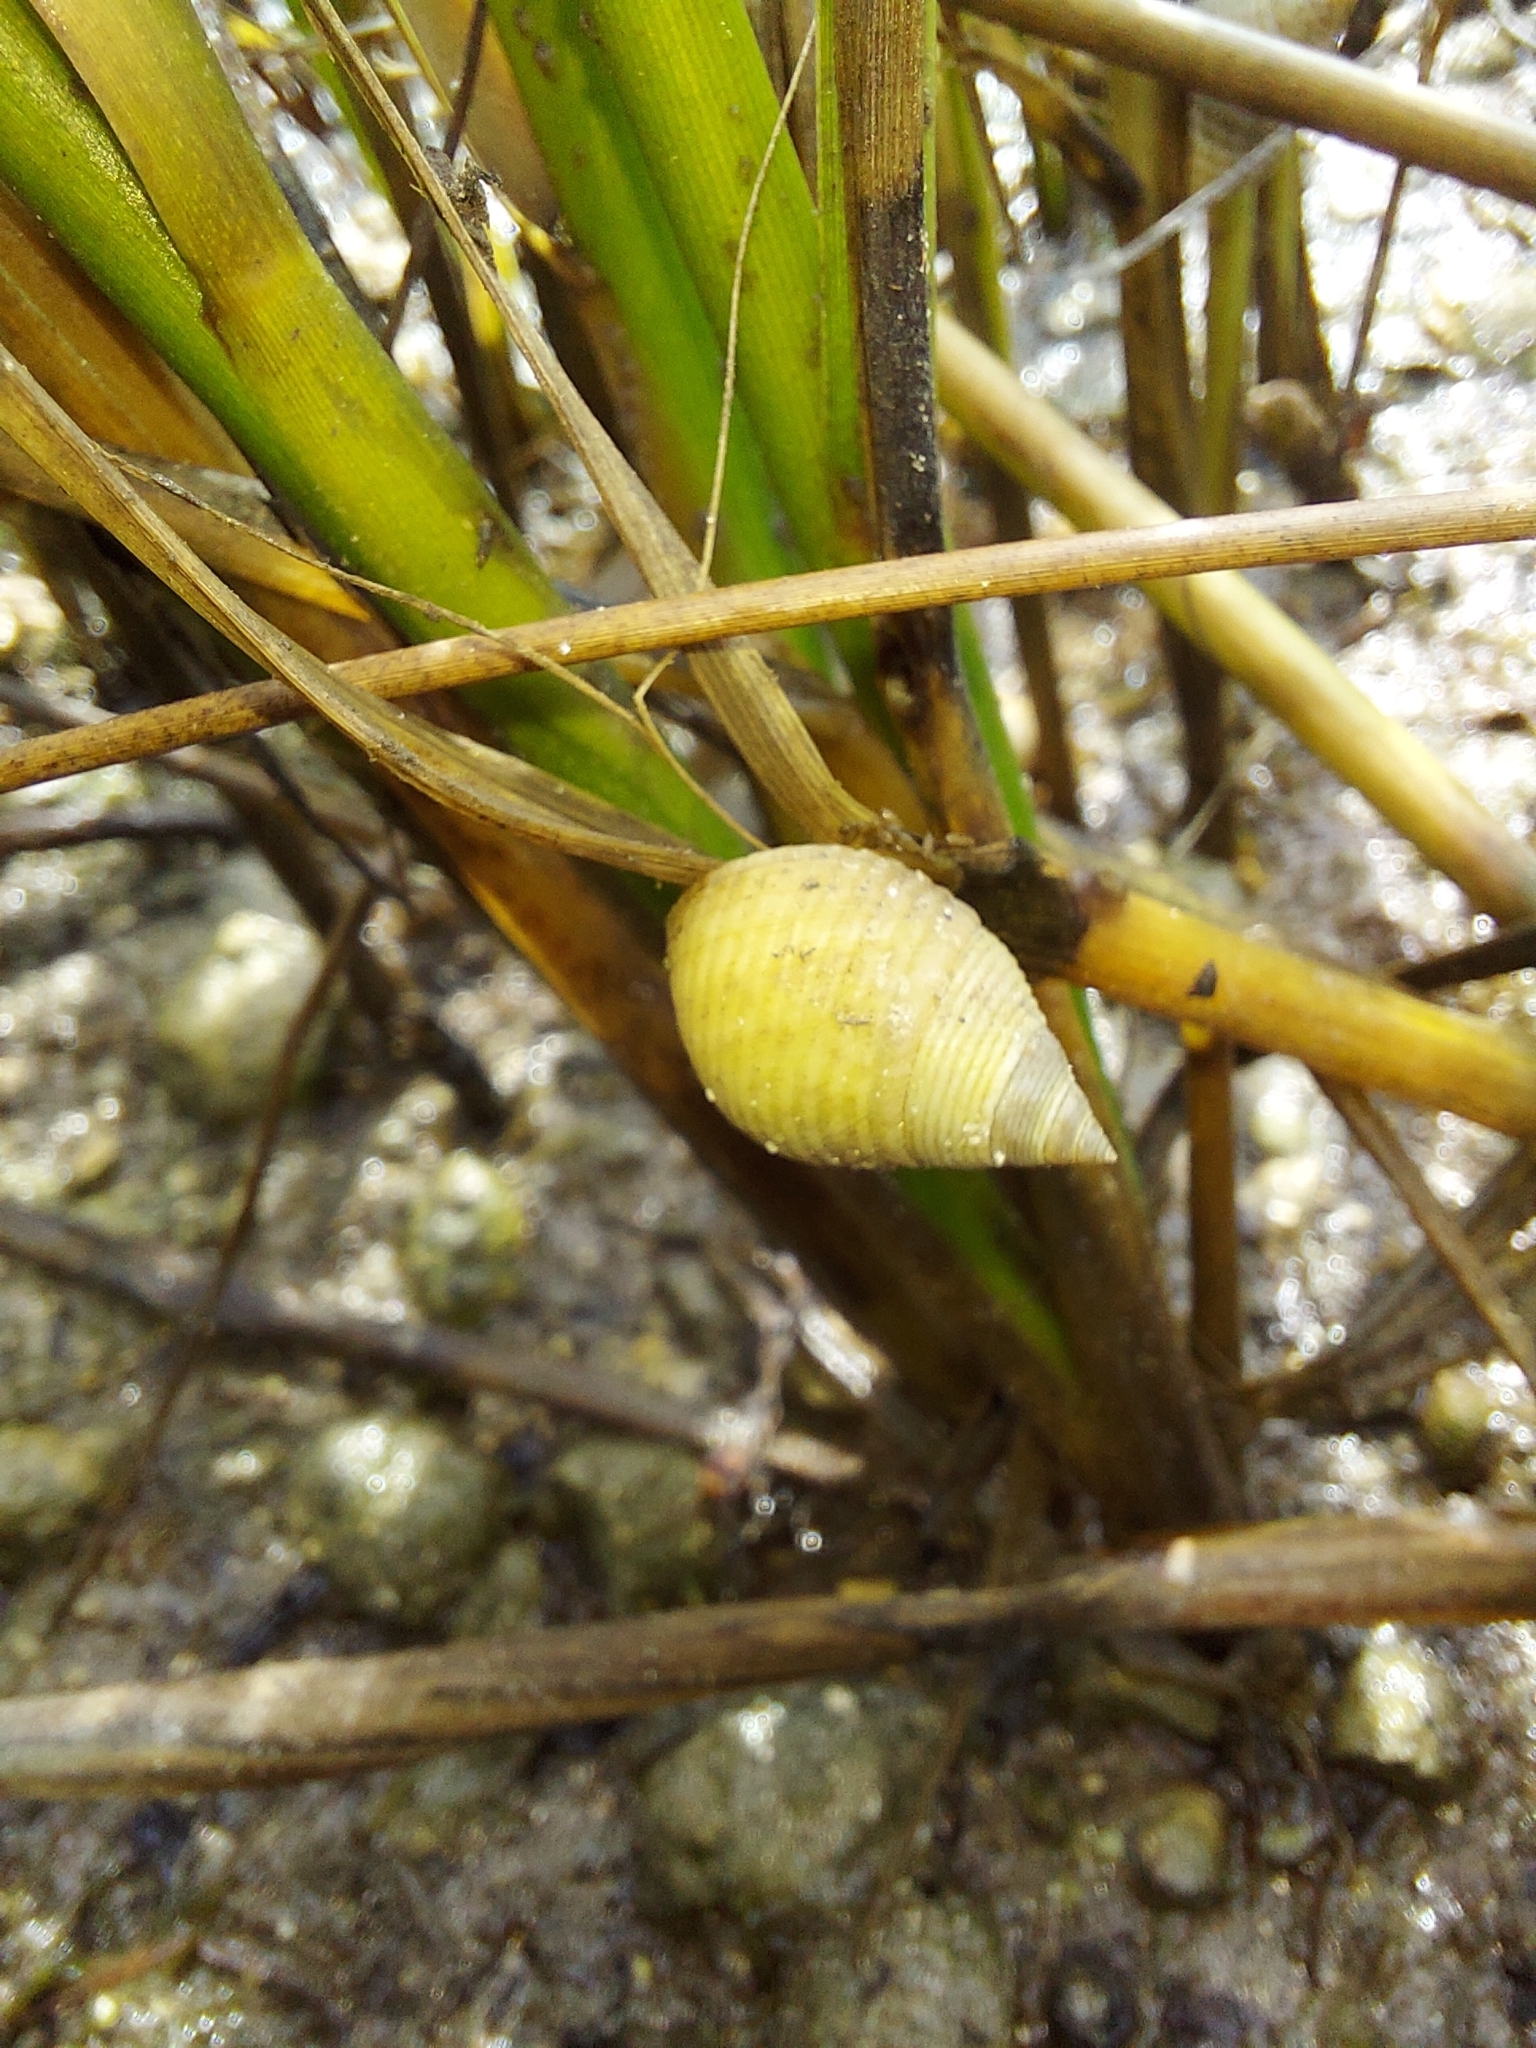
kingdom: Animalia
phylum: Mollusca
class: Gastropoda
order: Littorinimorpha
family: Littorinidae
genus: Littoraria
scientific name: Littoraria irrorata
